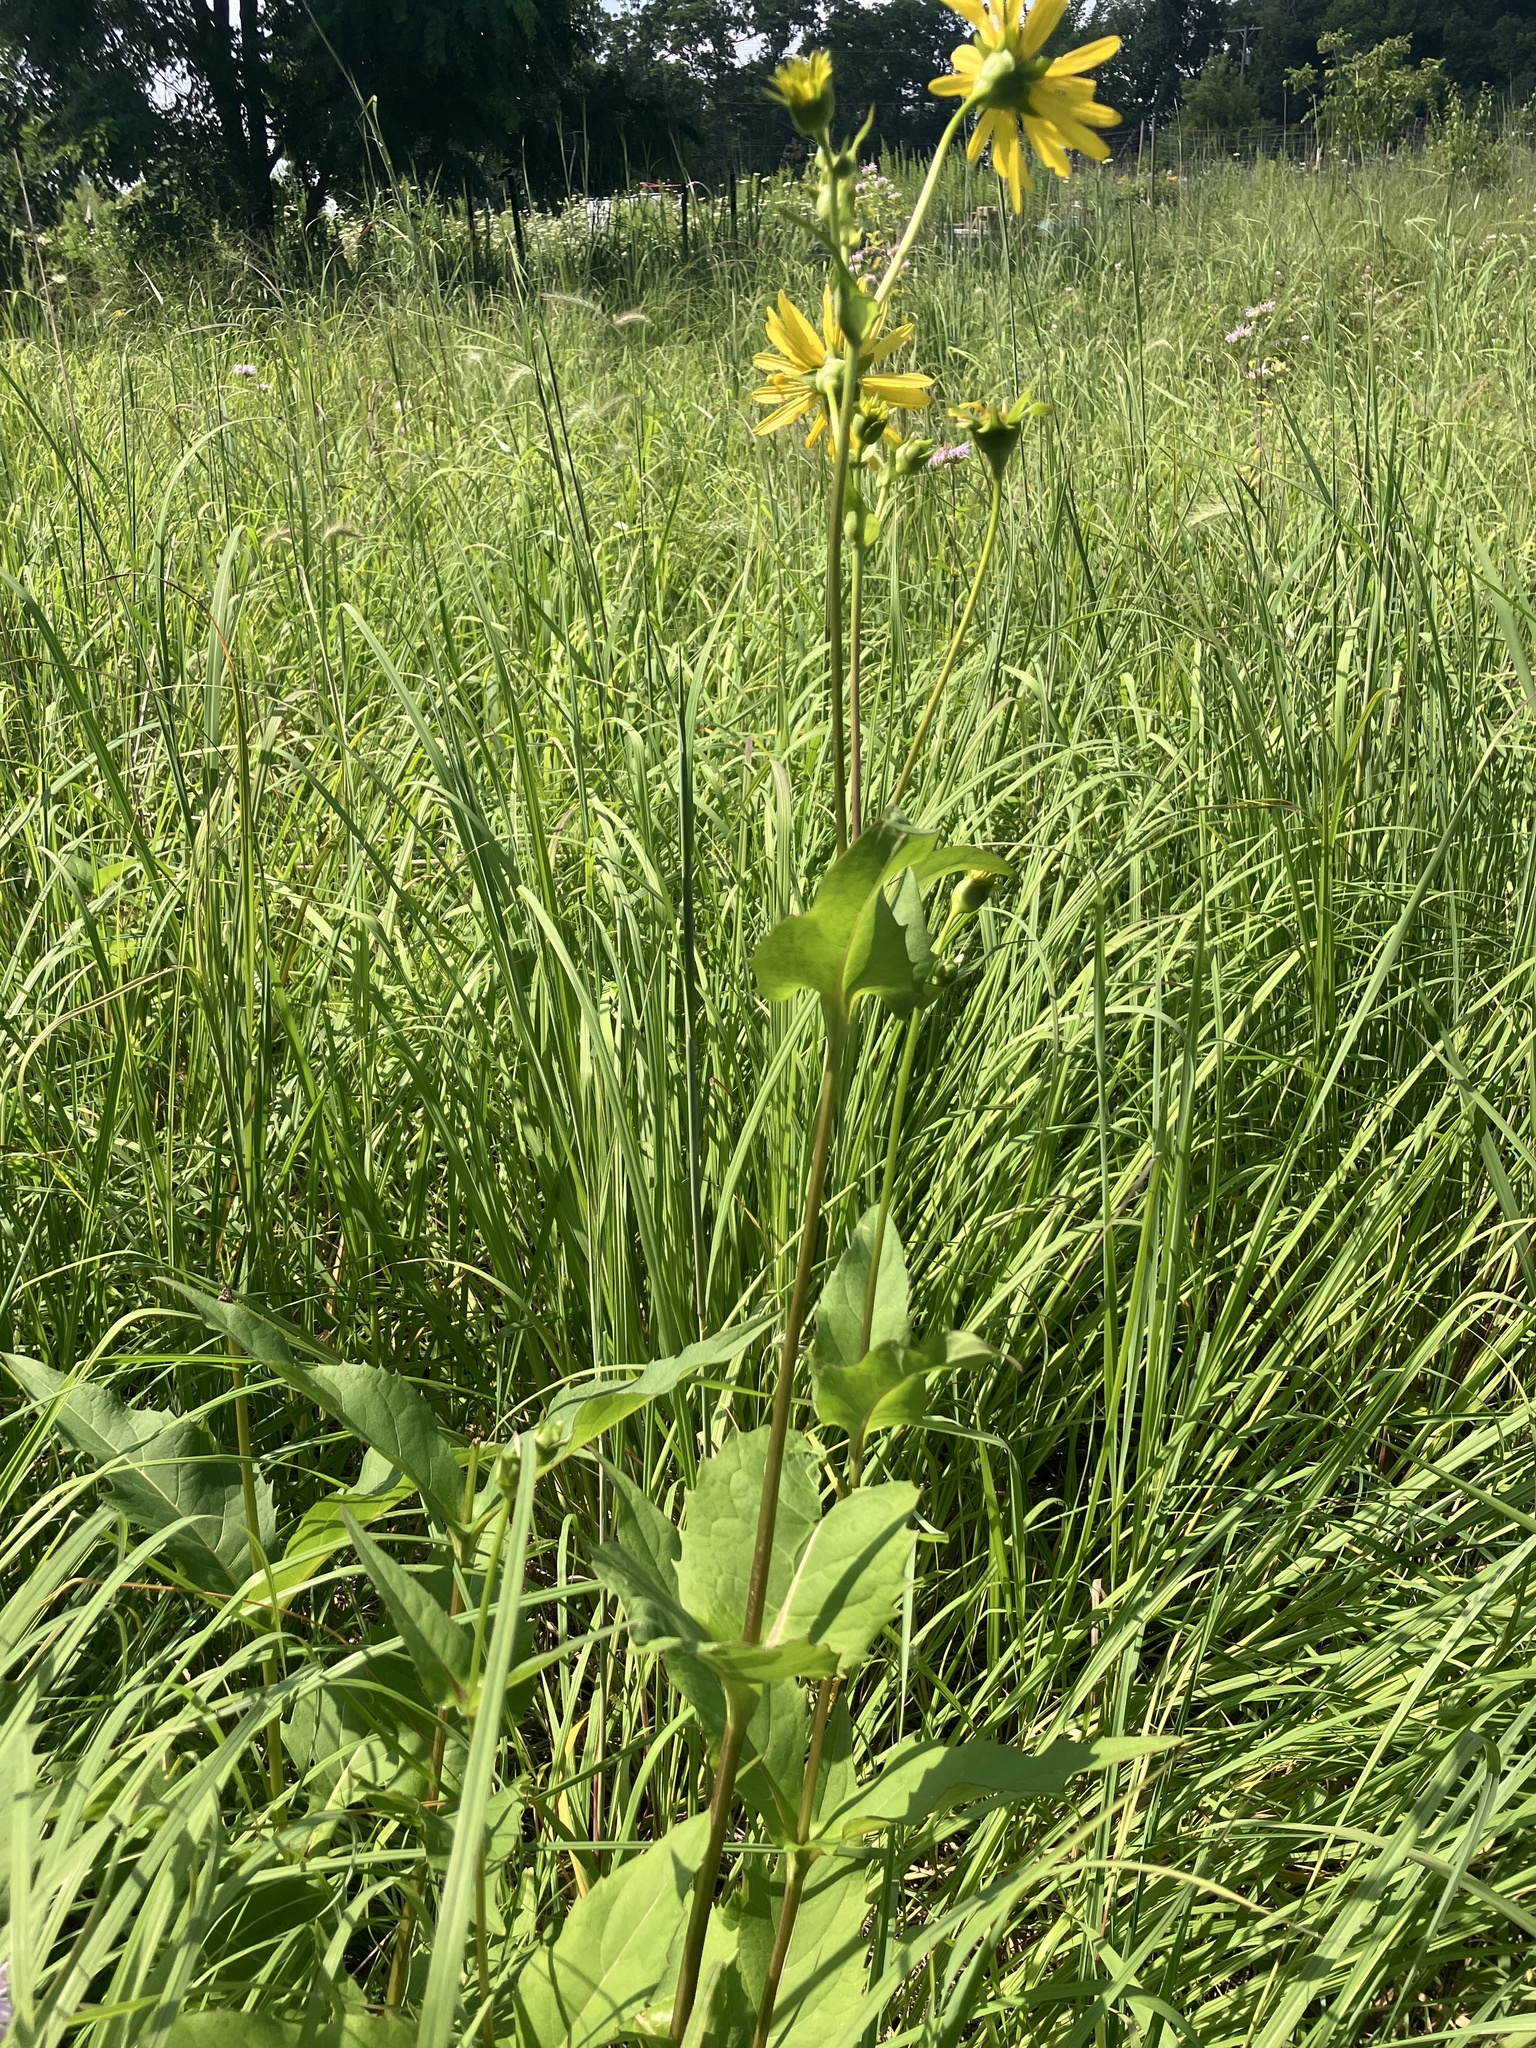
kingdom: Plantae
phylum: Tracheophyta
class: Magnoliopsida
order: Asterales
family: Asteraceae
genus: Silphium
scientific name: Silphium perfoliatum
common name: Cup-plant
